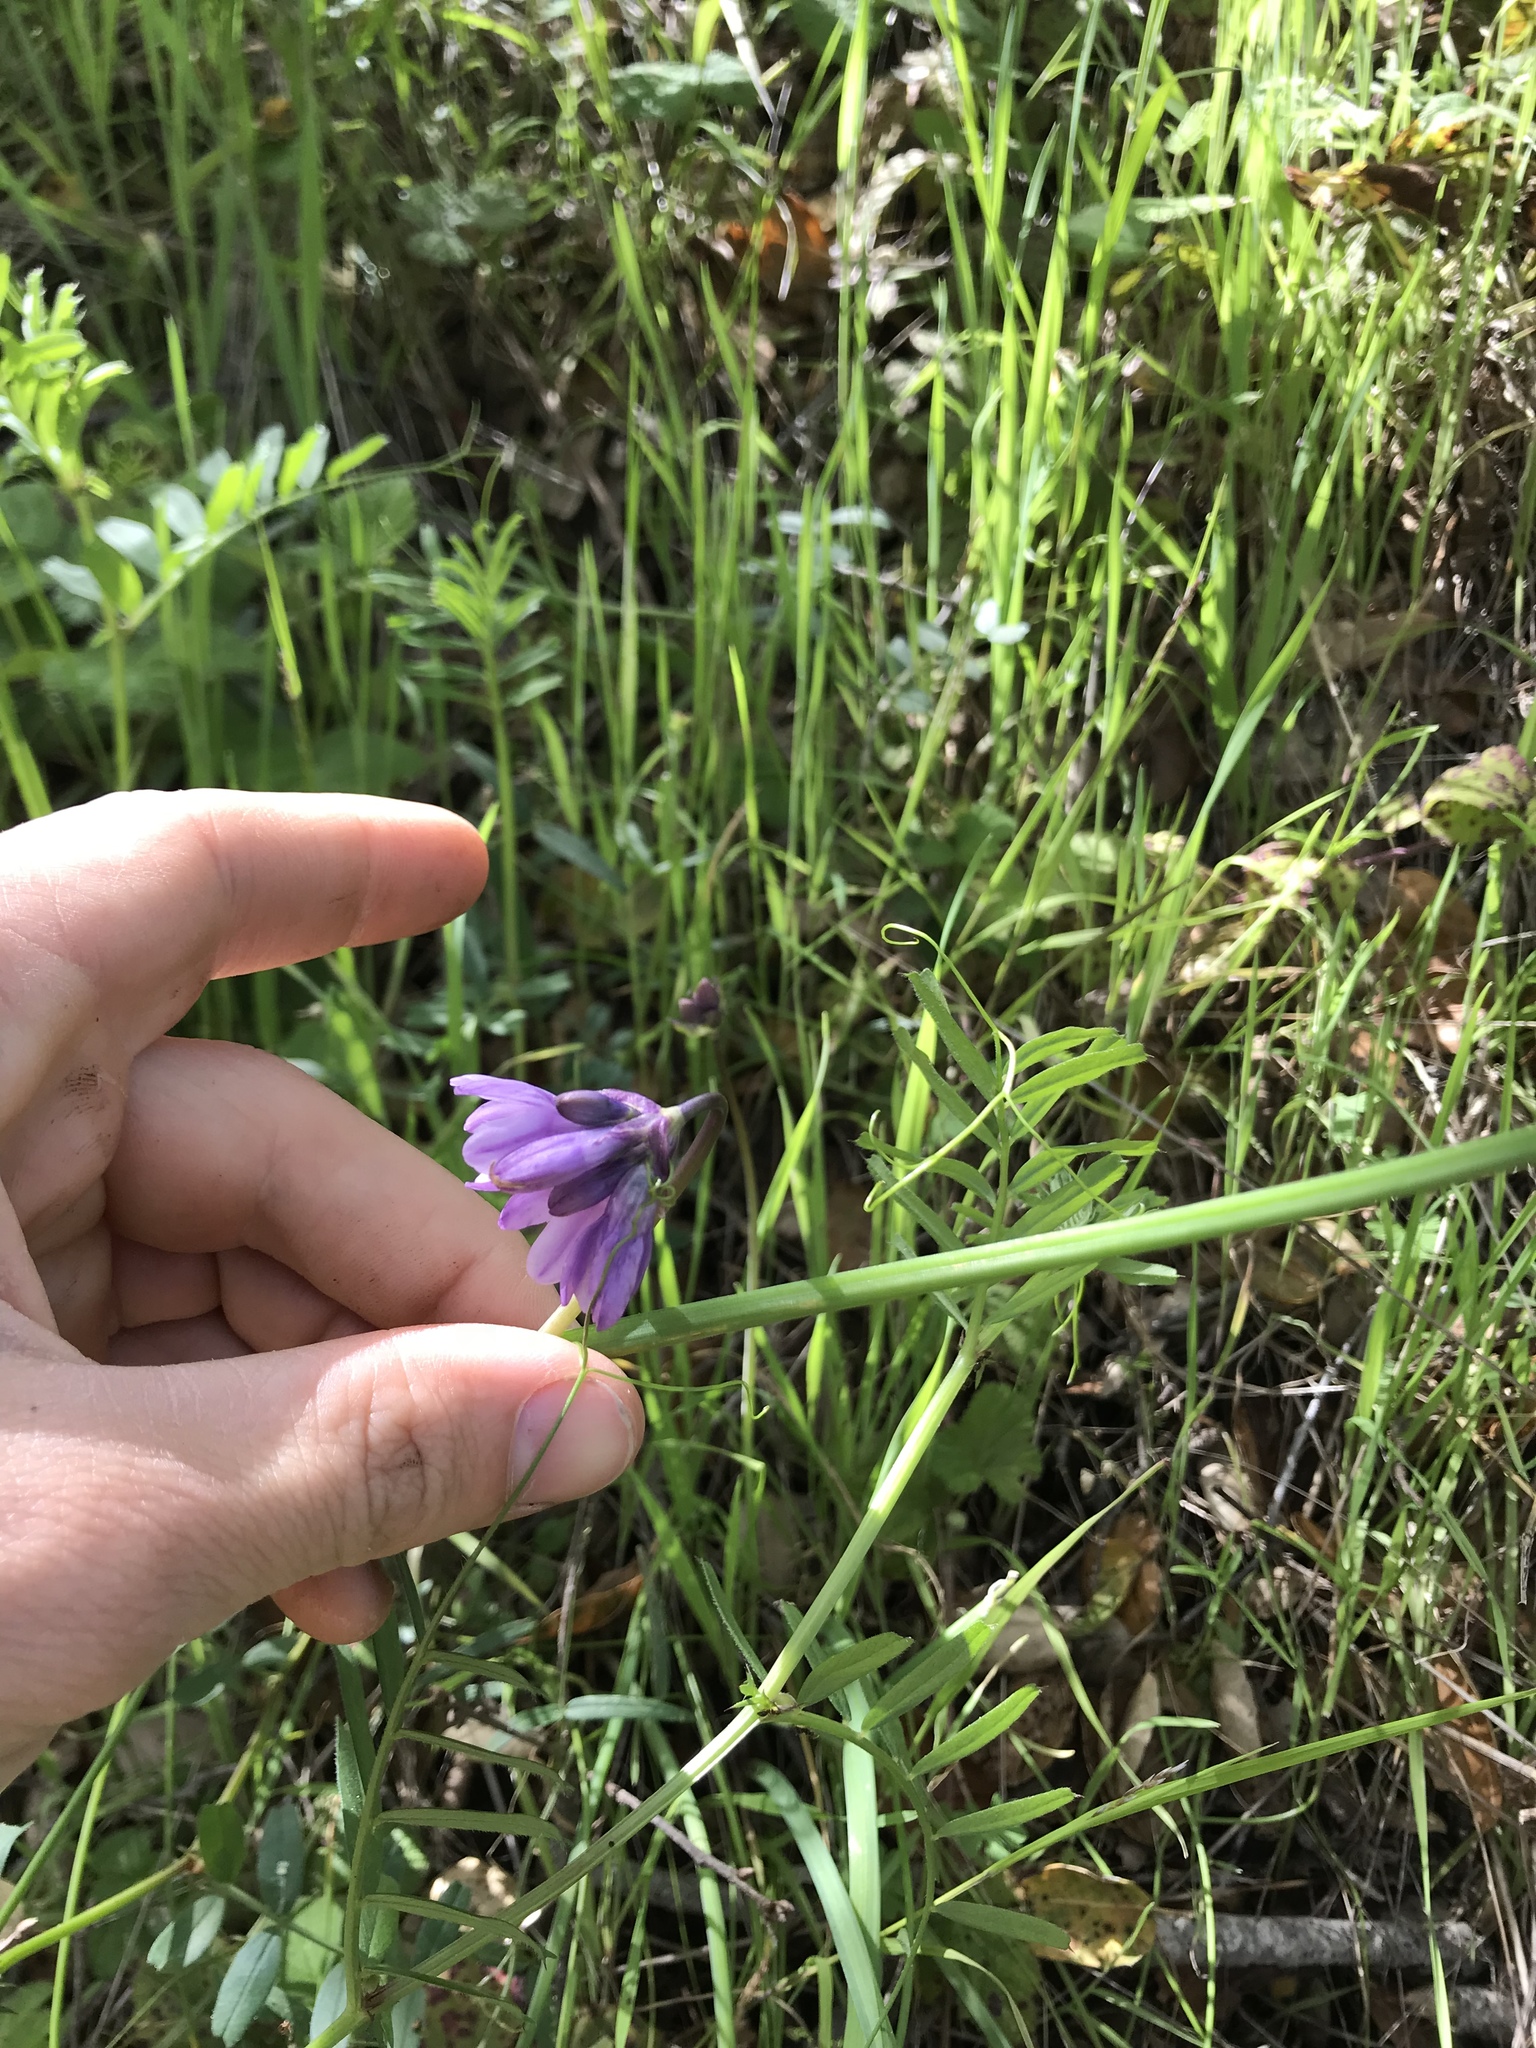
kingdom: Plantae
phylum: Tracheophyta
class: Liliopsida
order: Asparagales
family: Asparagaceae
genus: Dipterostemon
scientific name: Dipterostemon capitatus
